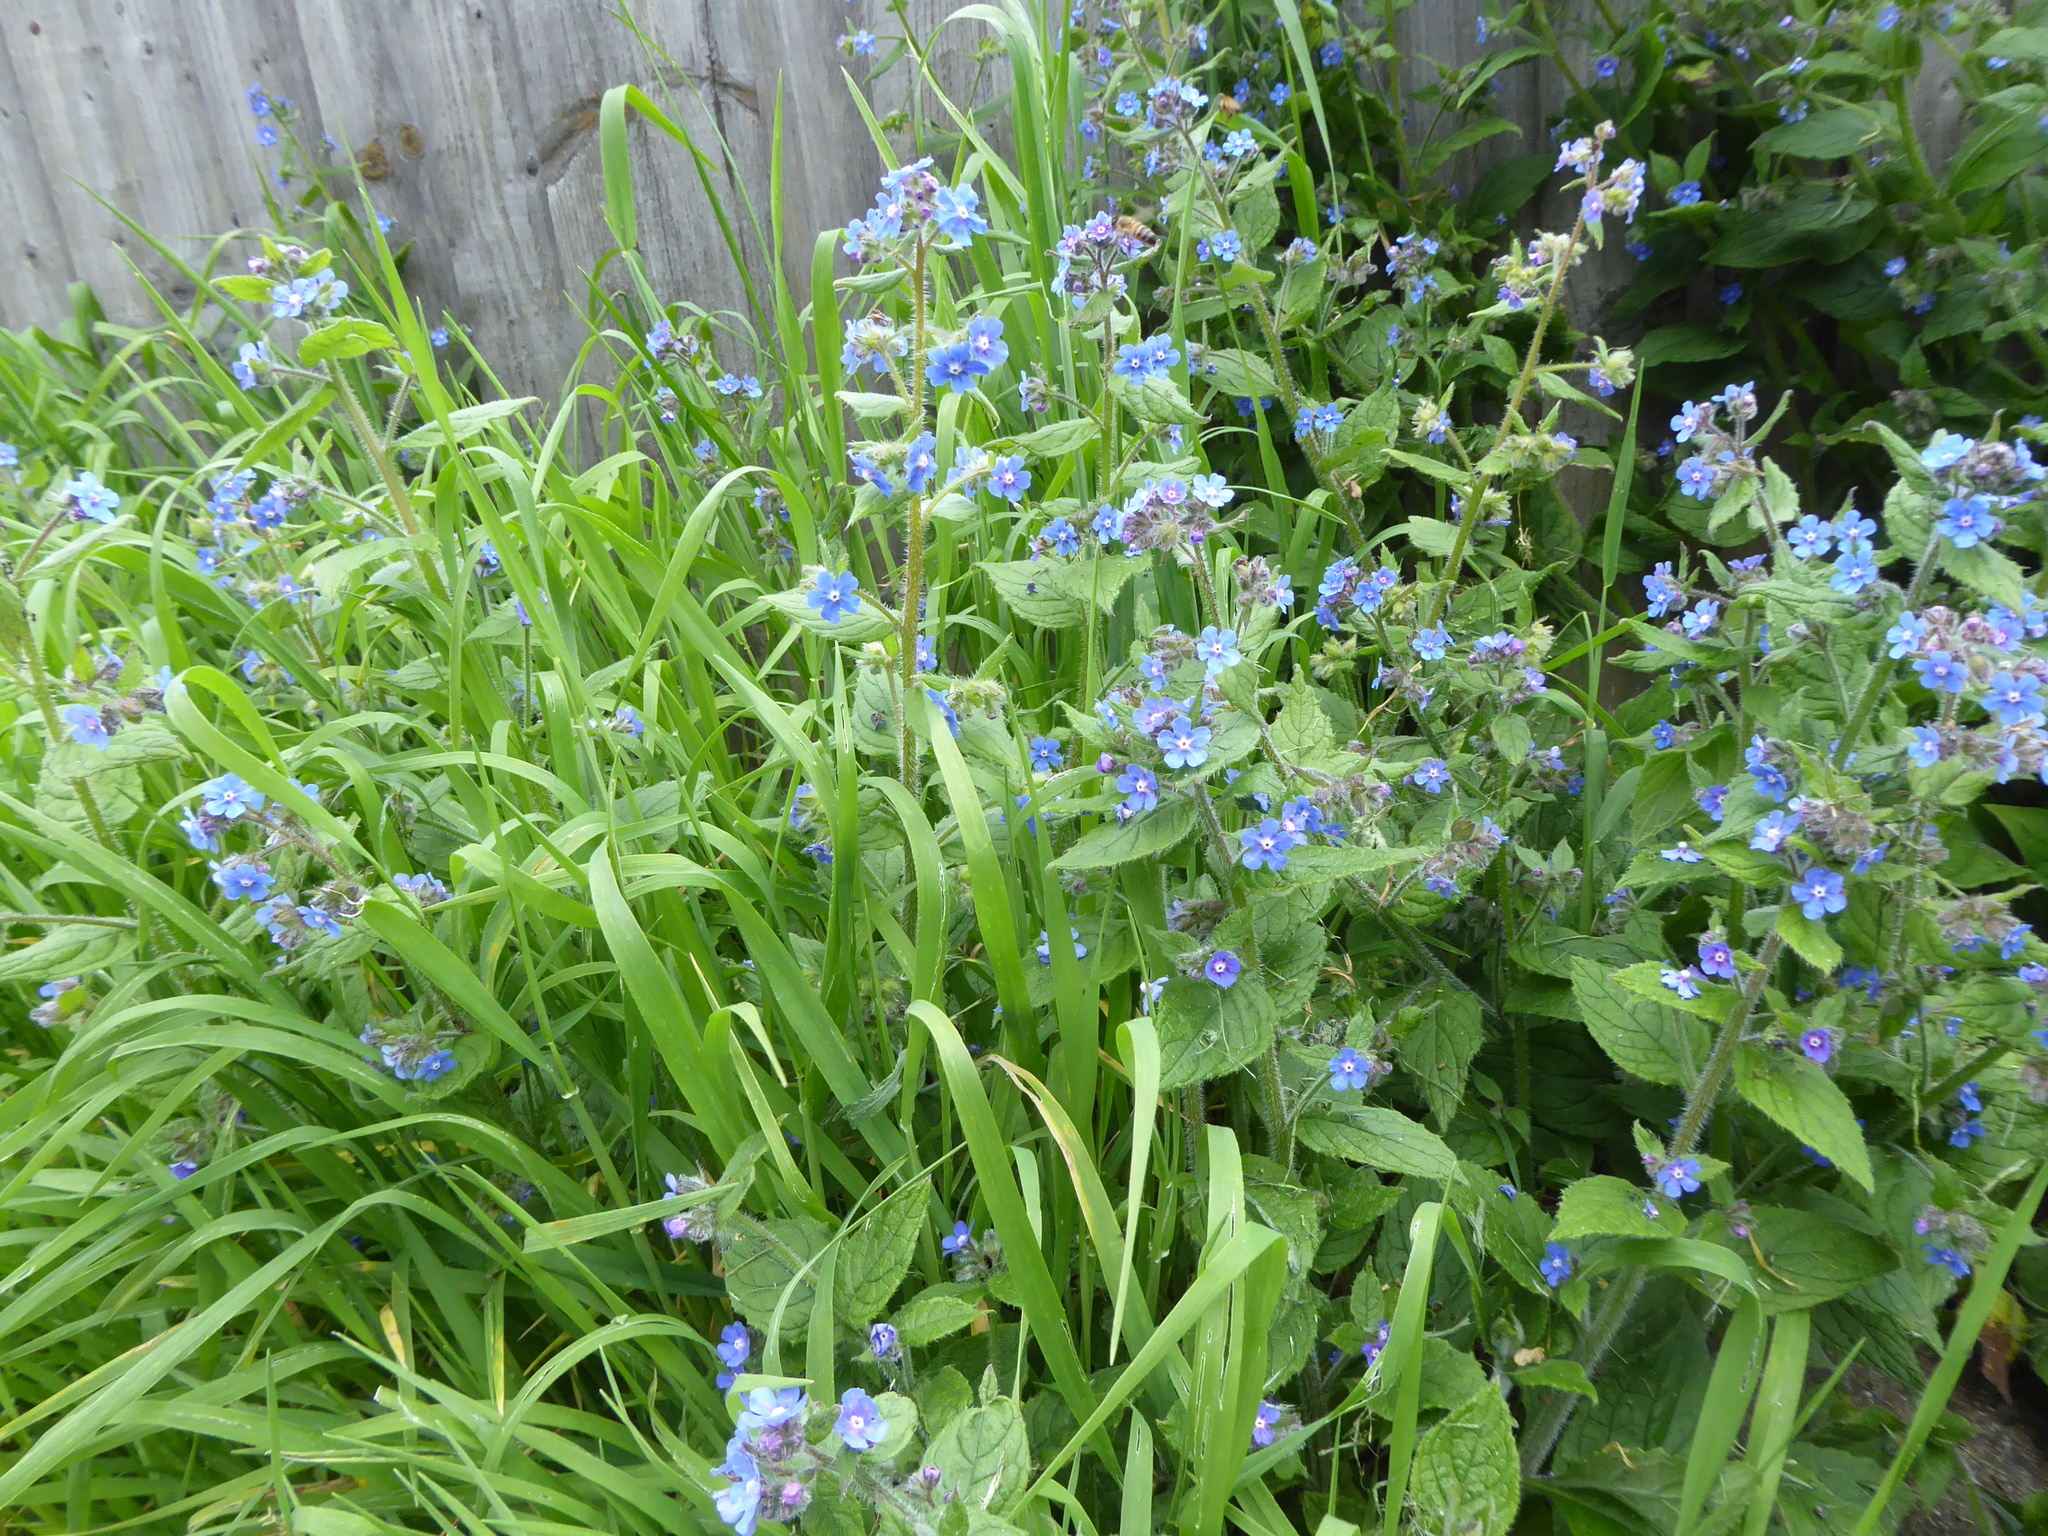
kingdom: Plantae
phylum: Tracheophyta
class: Magnoliopsida
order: Boraginales
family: Boraginaceae
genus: Pentaglottis
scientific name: Pentaglottis sempervirens
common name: Green alkanet
